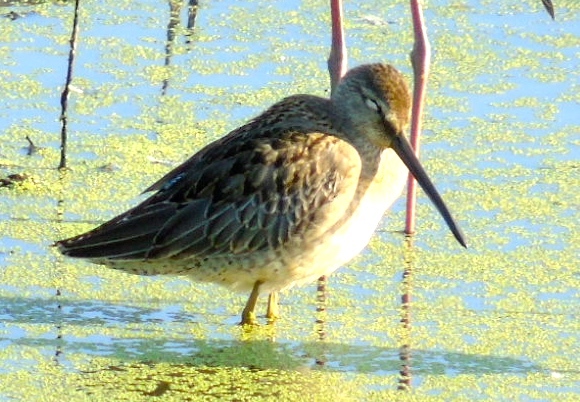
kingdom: Animalia
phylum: Chordata
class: Aves
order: Charadriiformes
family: Scolopacidae
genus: Limnodromus
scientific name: Limnodromus
